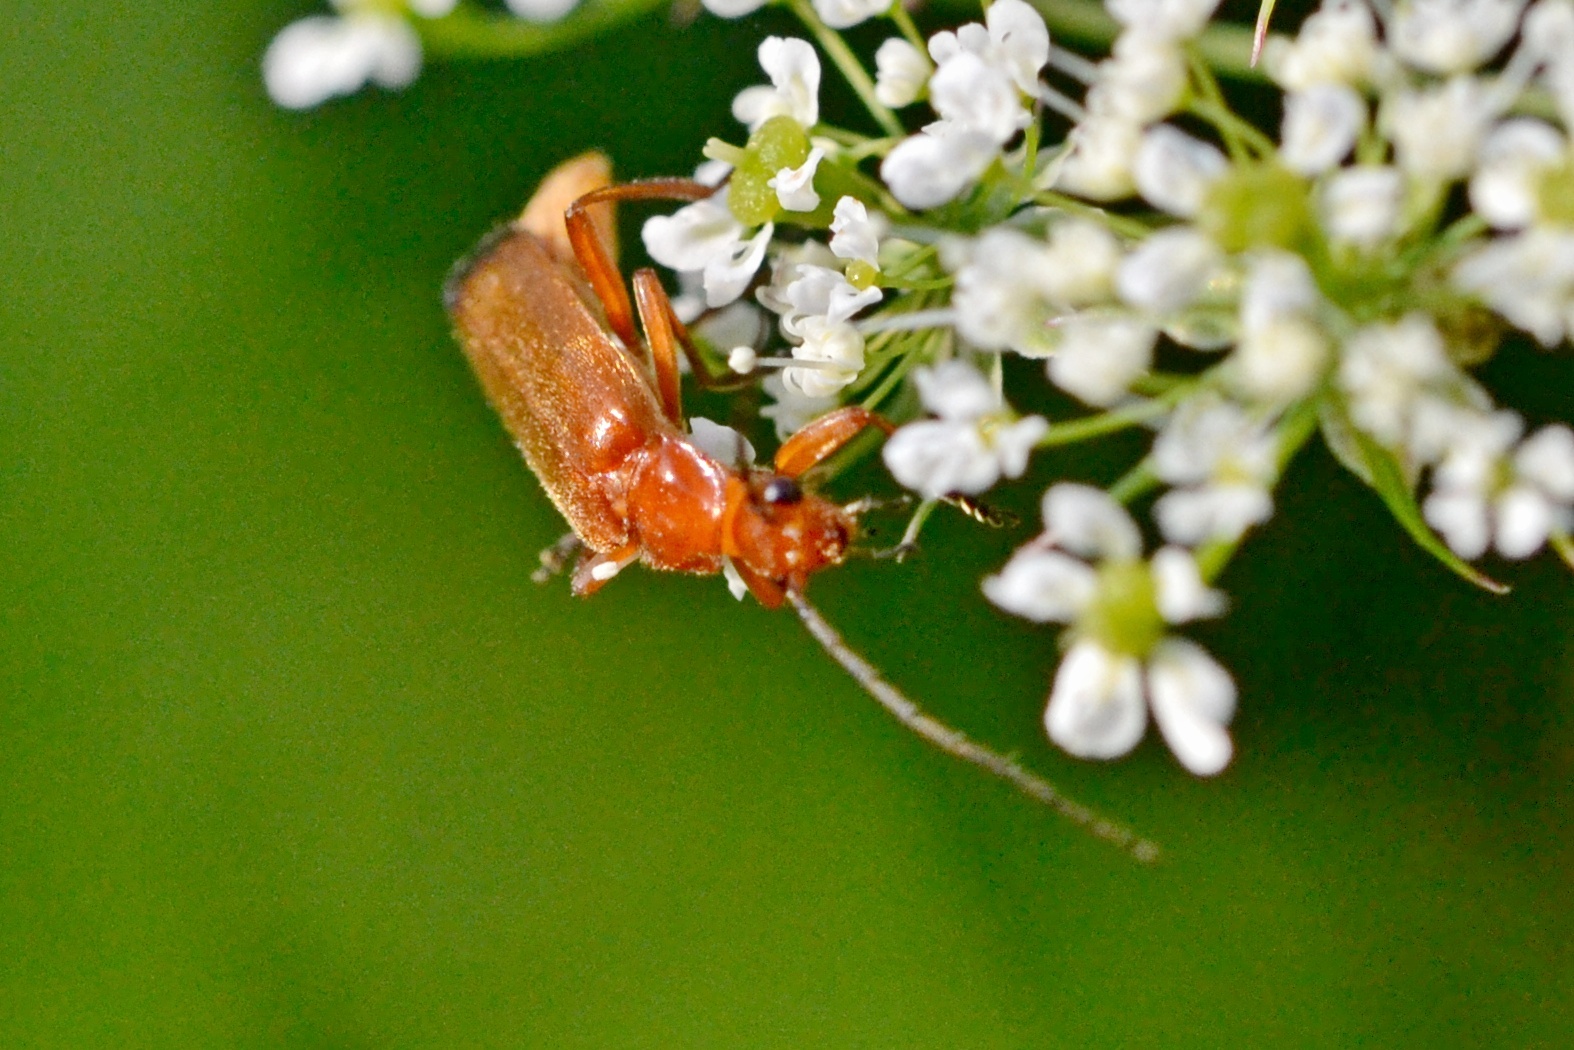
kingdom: Animalia
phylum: Arthropoda
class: Insecta
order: Coleoptera
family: Cantharidae
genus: Rhagonycha
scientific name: Rhagonycha fulva
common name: Common red soldier beetle
